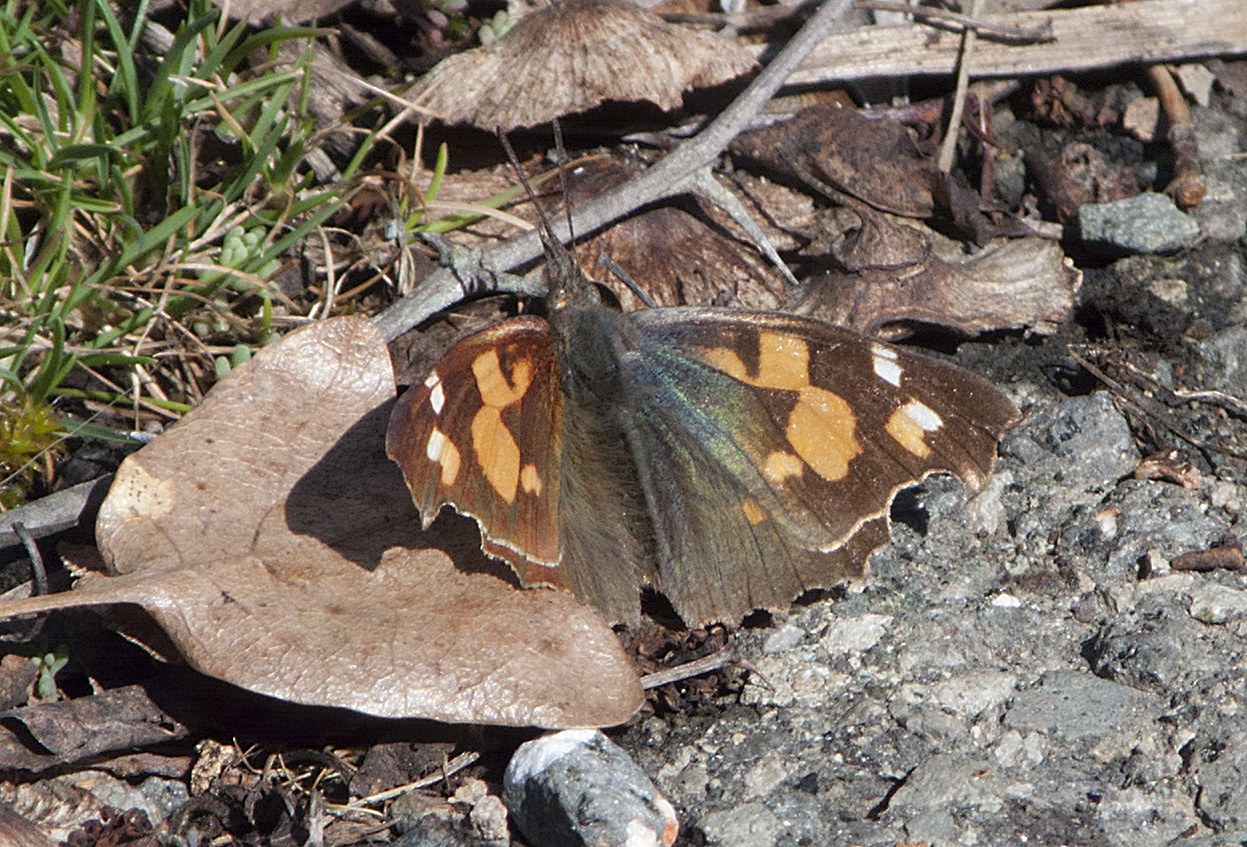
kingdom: Animalia
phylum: Arthropoda
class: Insecta
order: Lepidoptera
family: Nymphalidae
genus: Libythea
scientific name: Libythea celtis
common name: Nettle-tree butterfly
